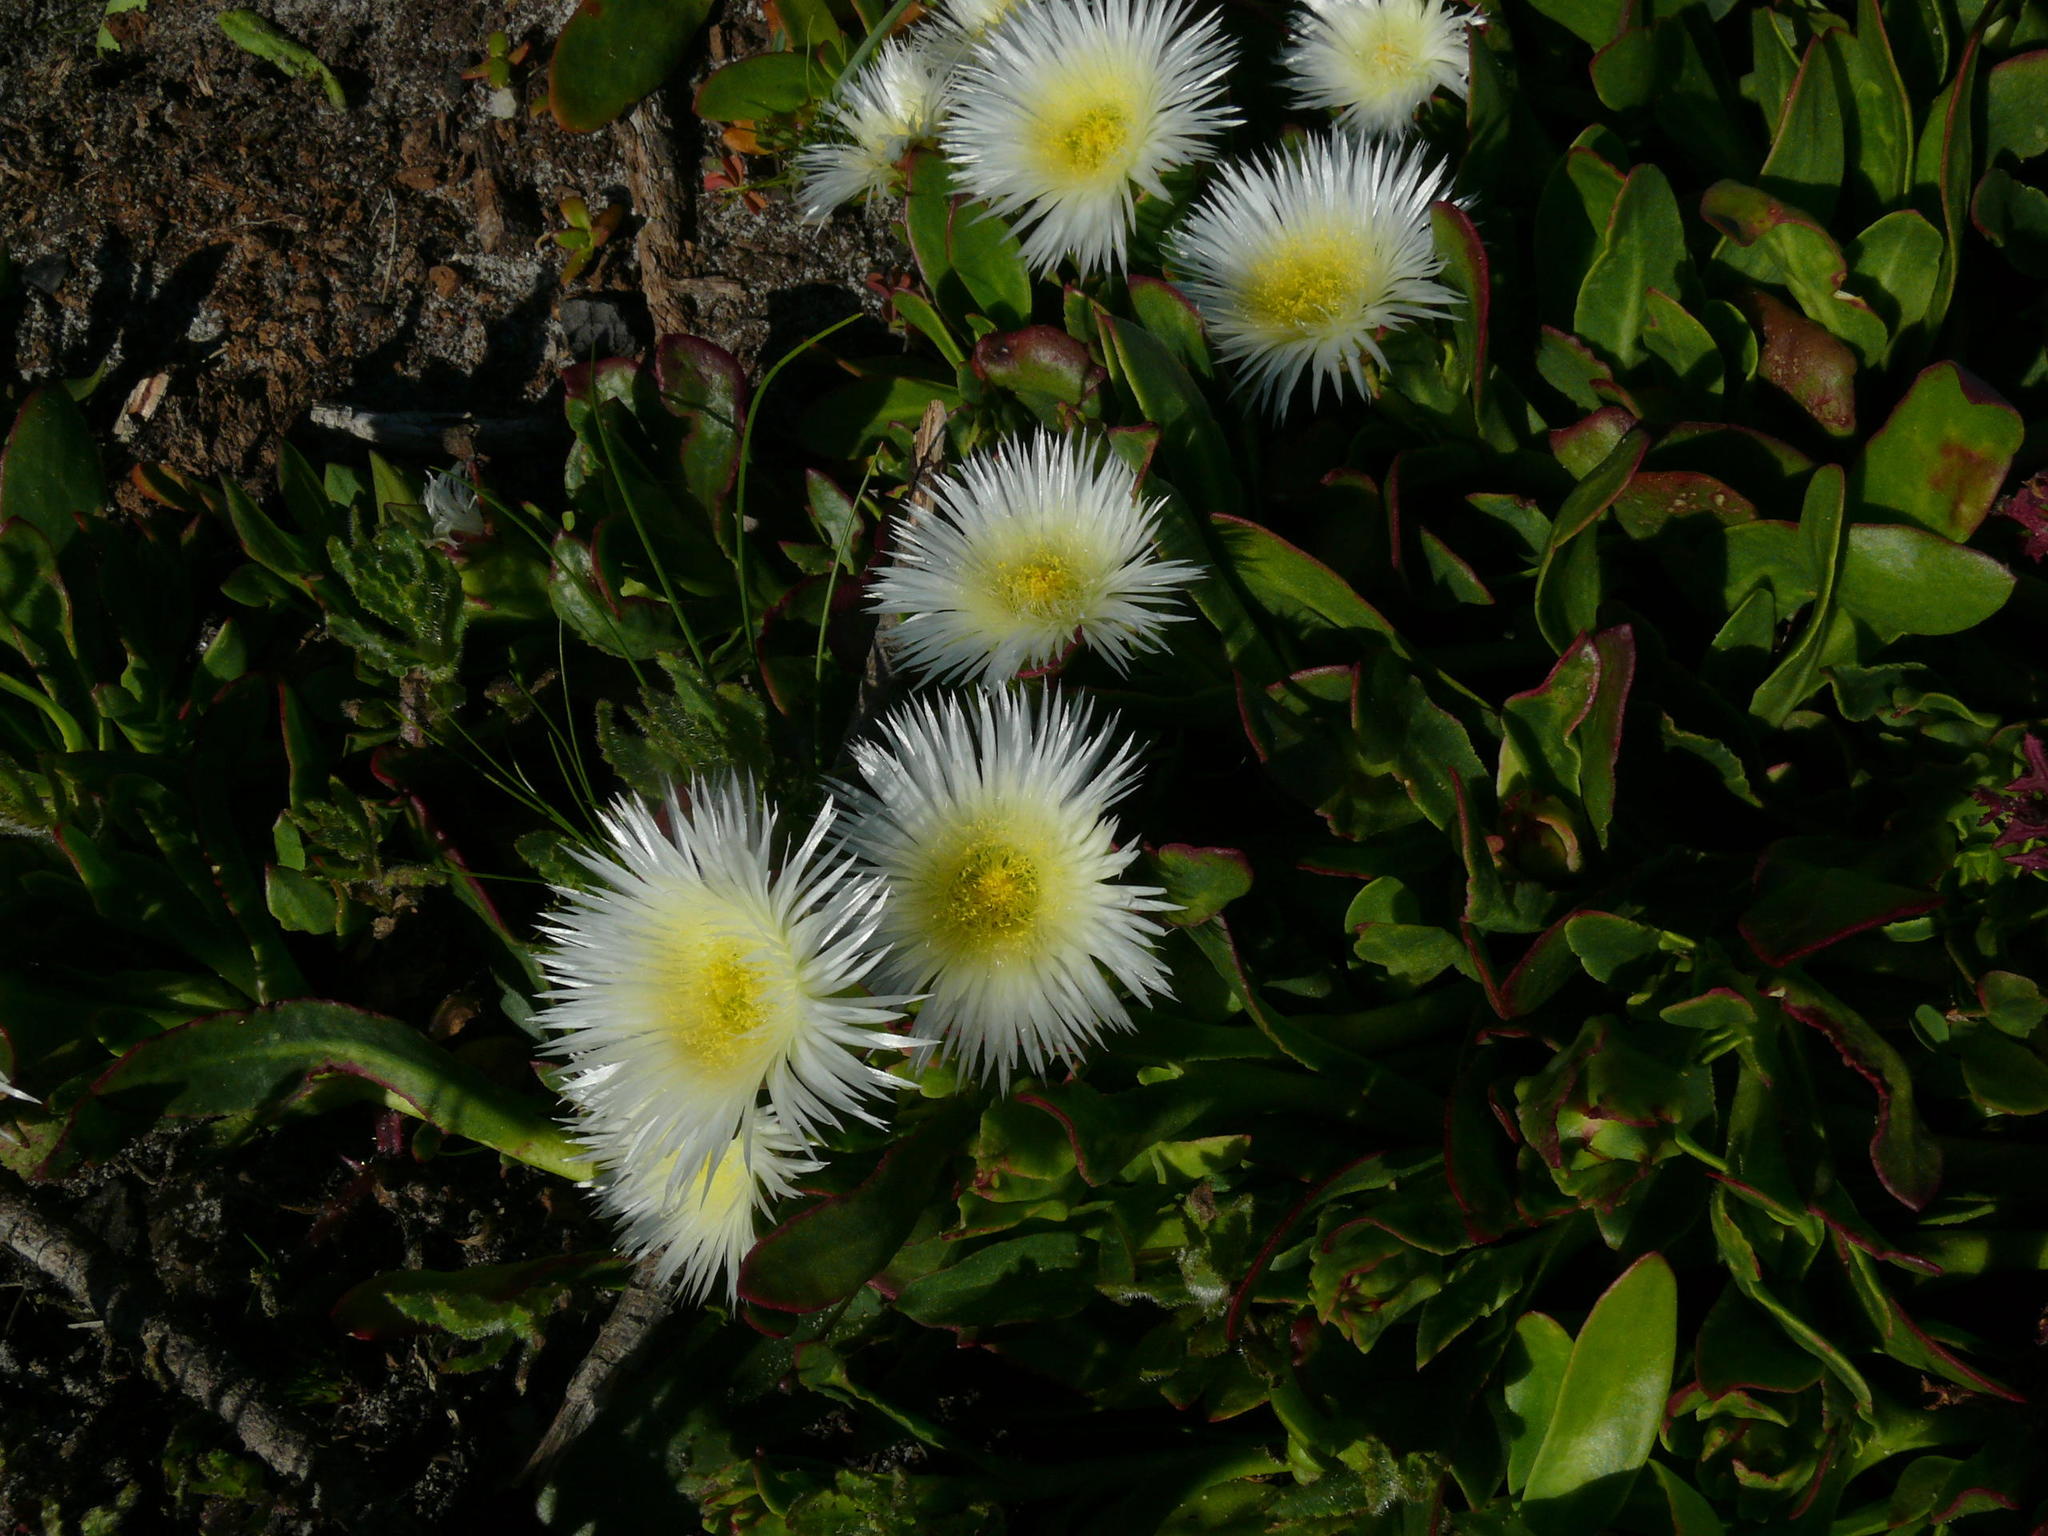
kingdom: Plantae
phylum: Tracheophyta
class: Magnoliopsida
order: Caryophyllales
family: Aizoaceae
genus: Skiatophytum
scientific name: Skiatophytum tripolium
